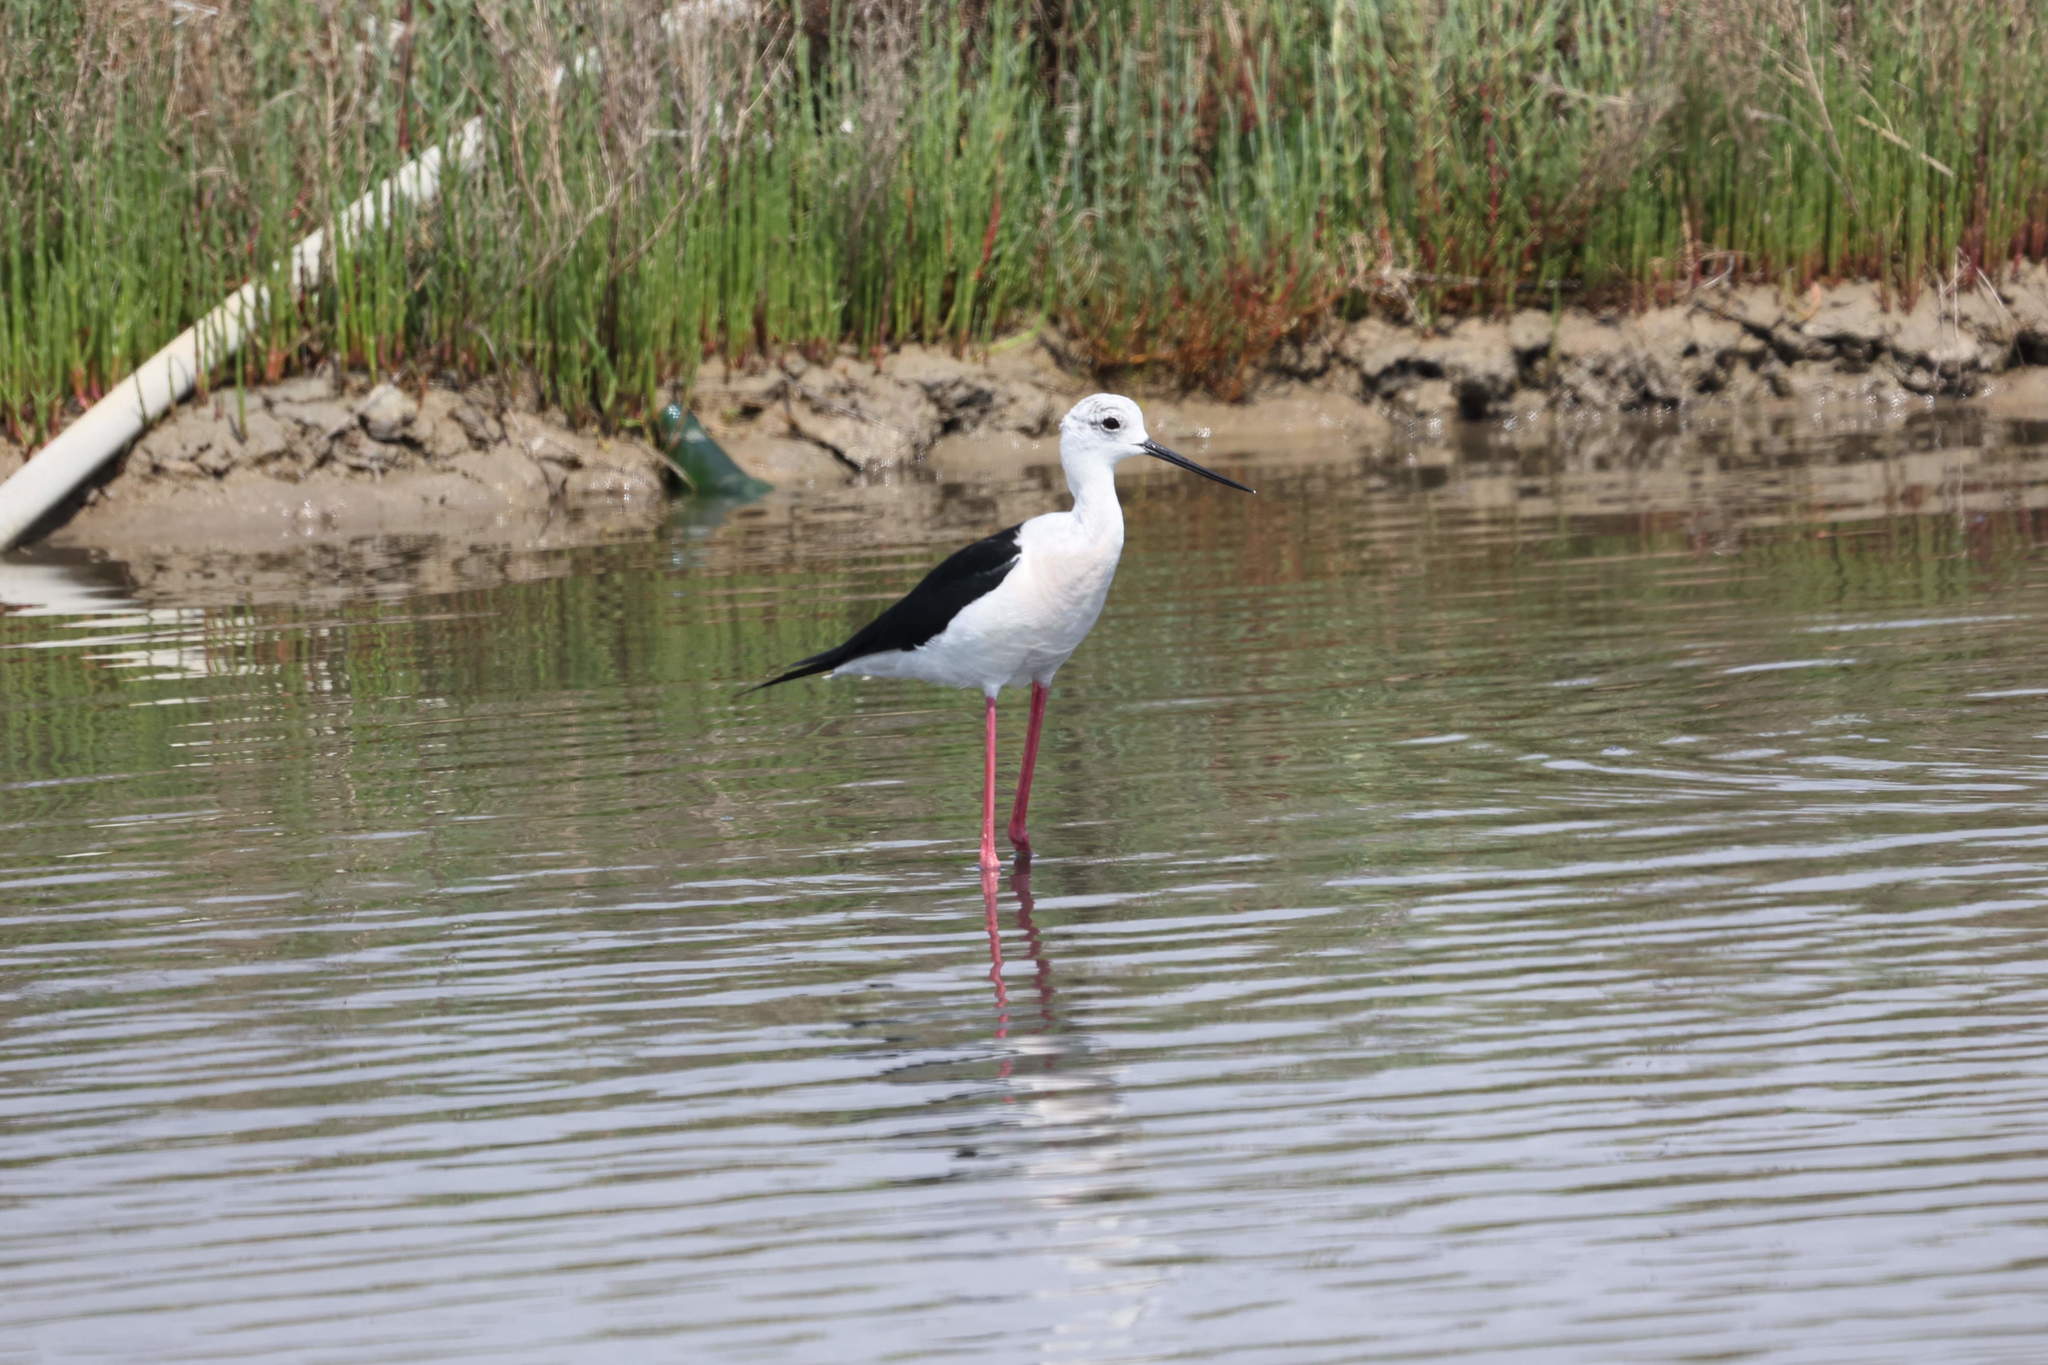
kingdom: Animalia
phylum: Chordata
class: Aves
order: Charadriiformes
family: Recurvirostridae
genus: Himantopus
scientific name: Himantopus himantopus
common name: Black-winged stilt
